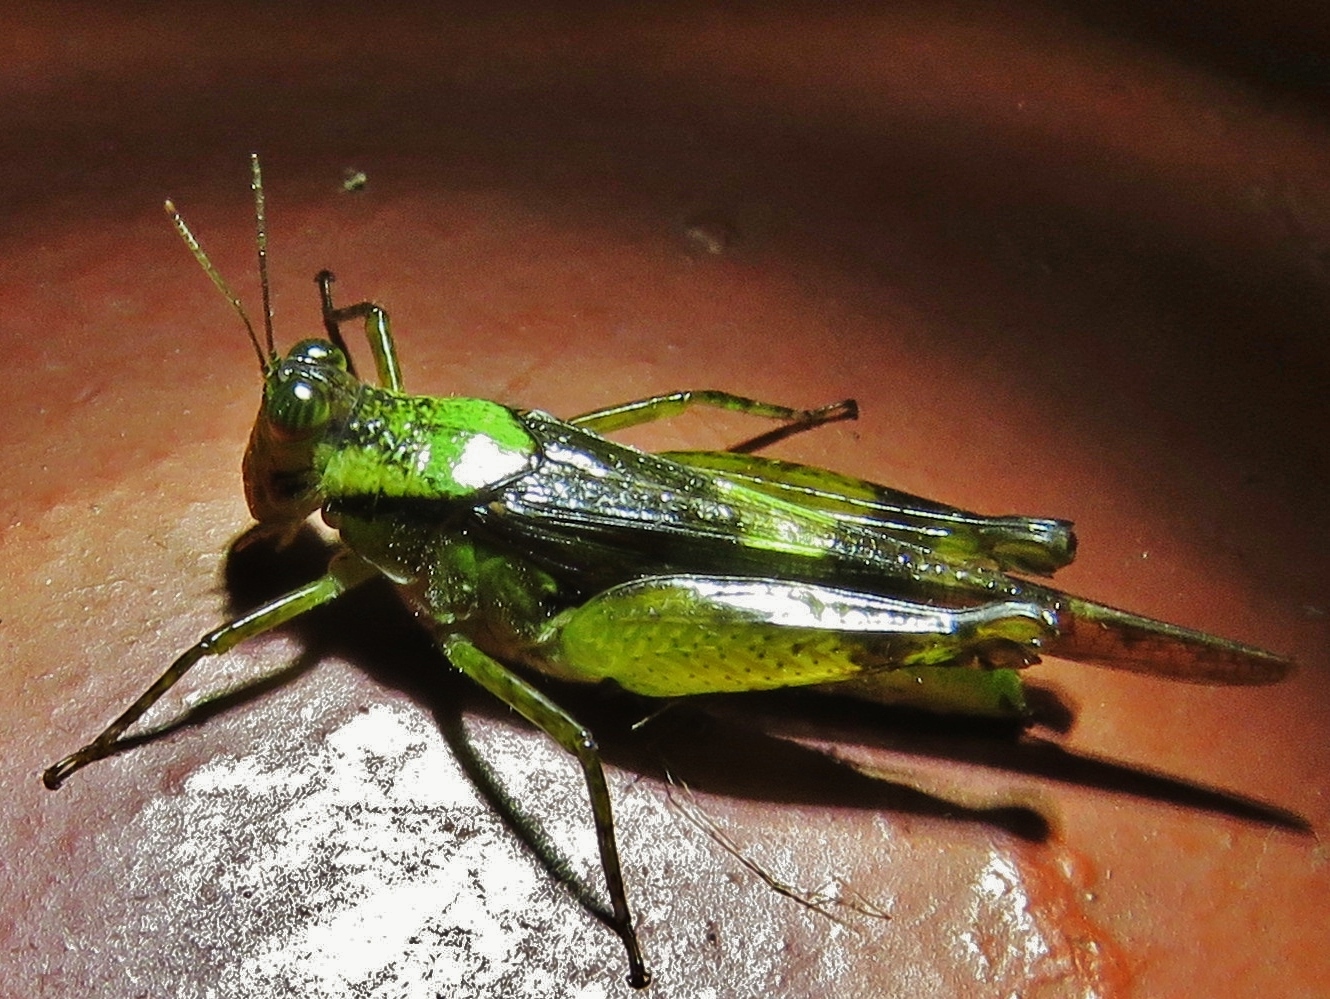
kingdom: Animalia
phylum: Arthropoda
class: Insecta
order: Orthoptera
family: Acrididae
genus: Paulinia
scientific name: Paulinia acuminata
